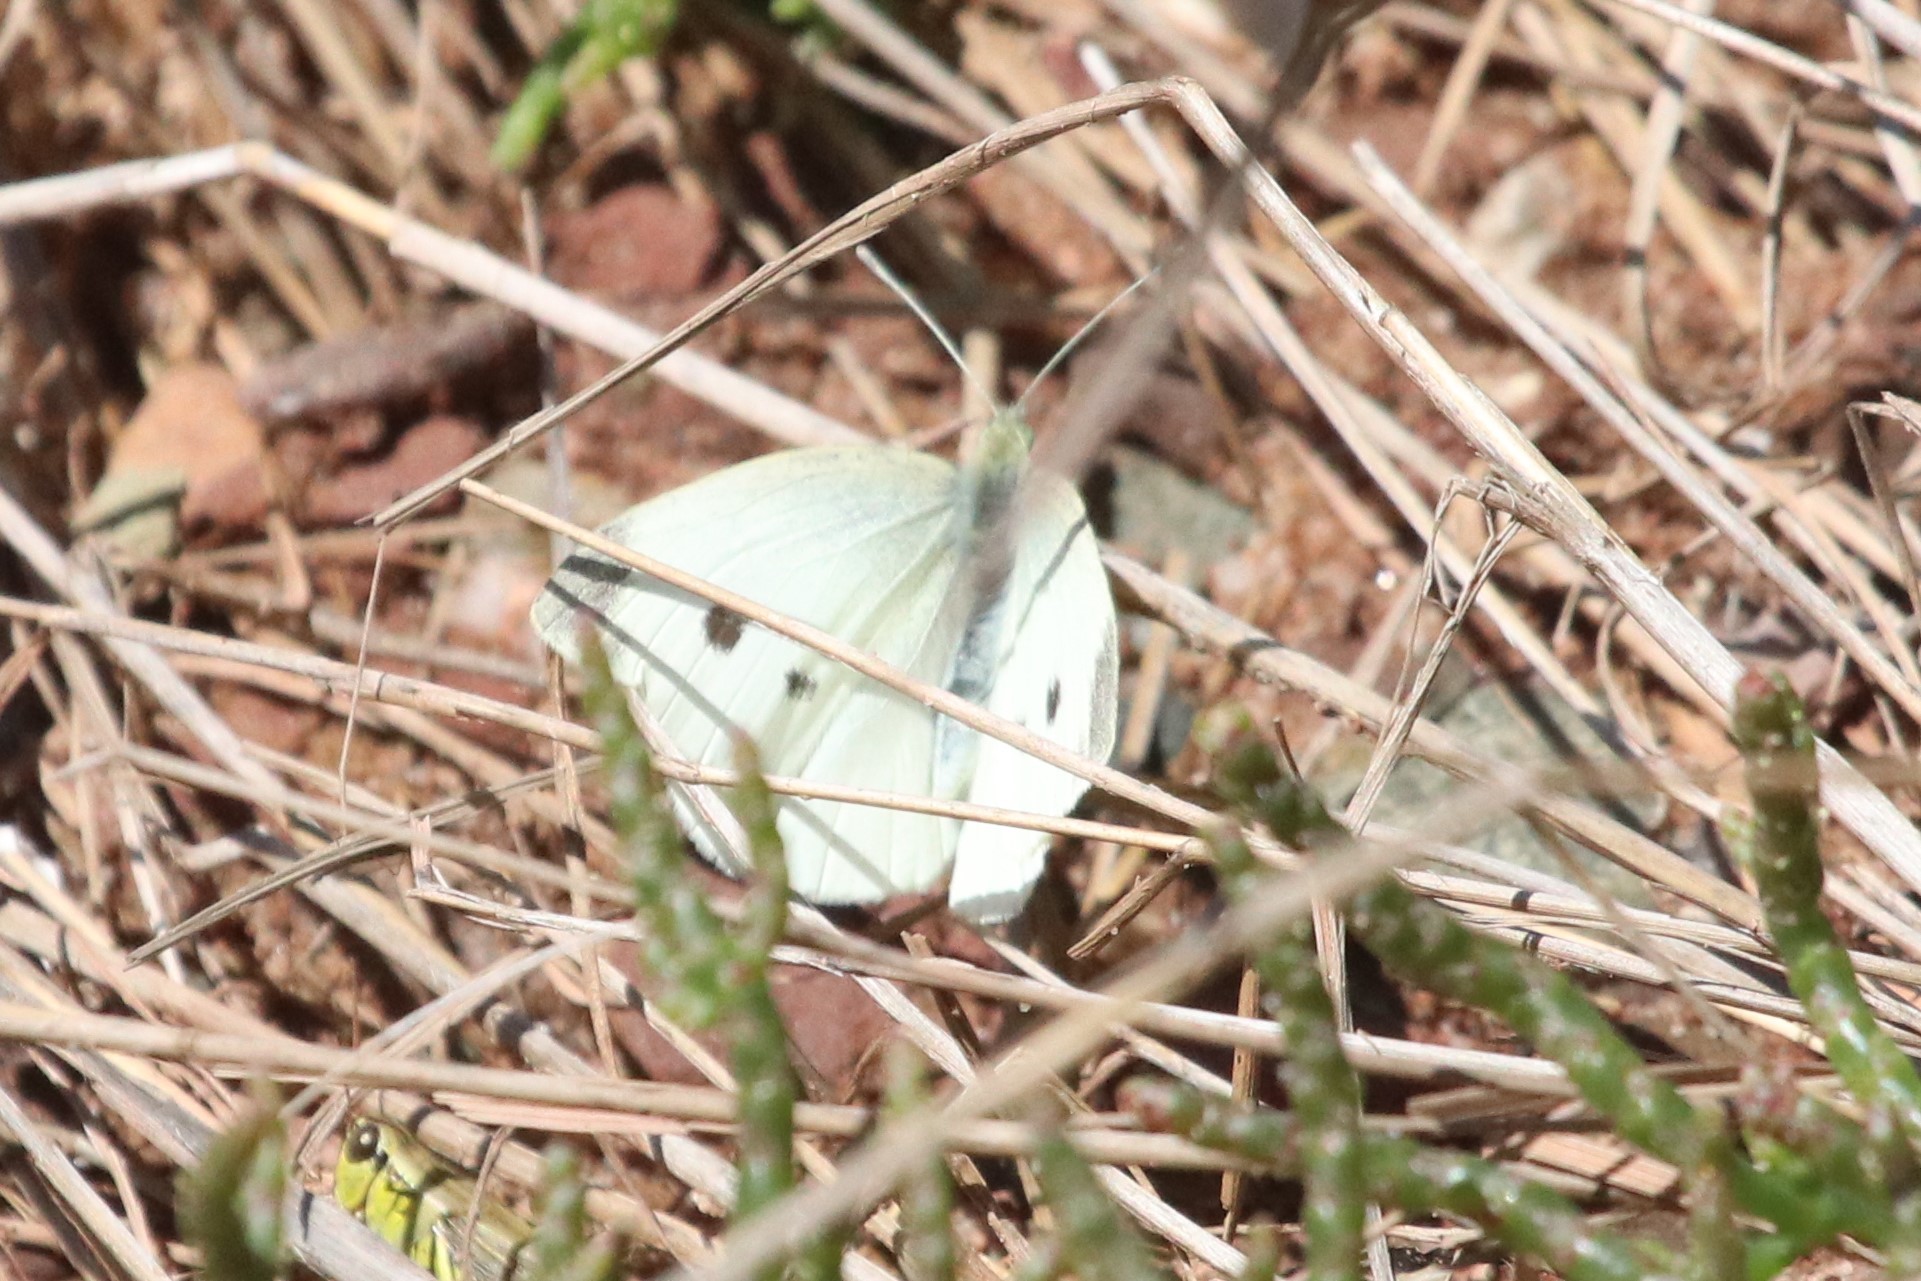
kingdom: Animalia
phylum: Arthropoda
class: Insecta
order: Lepidoptera
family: Pieridae
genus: Pieris
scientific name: Pieris rapae
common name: Small white
